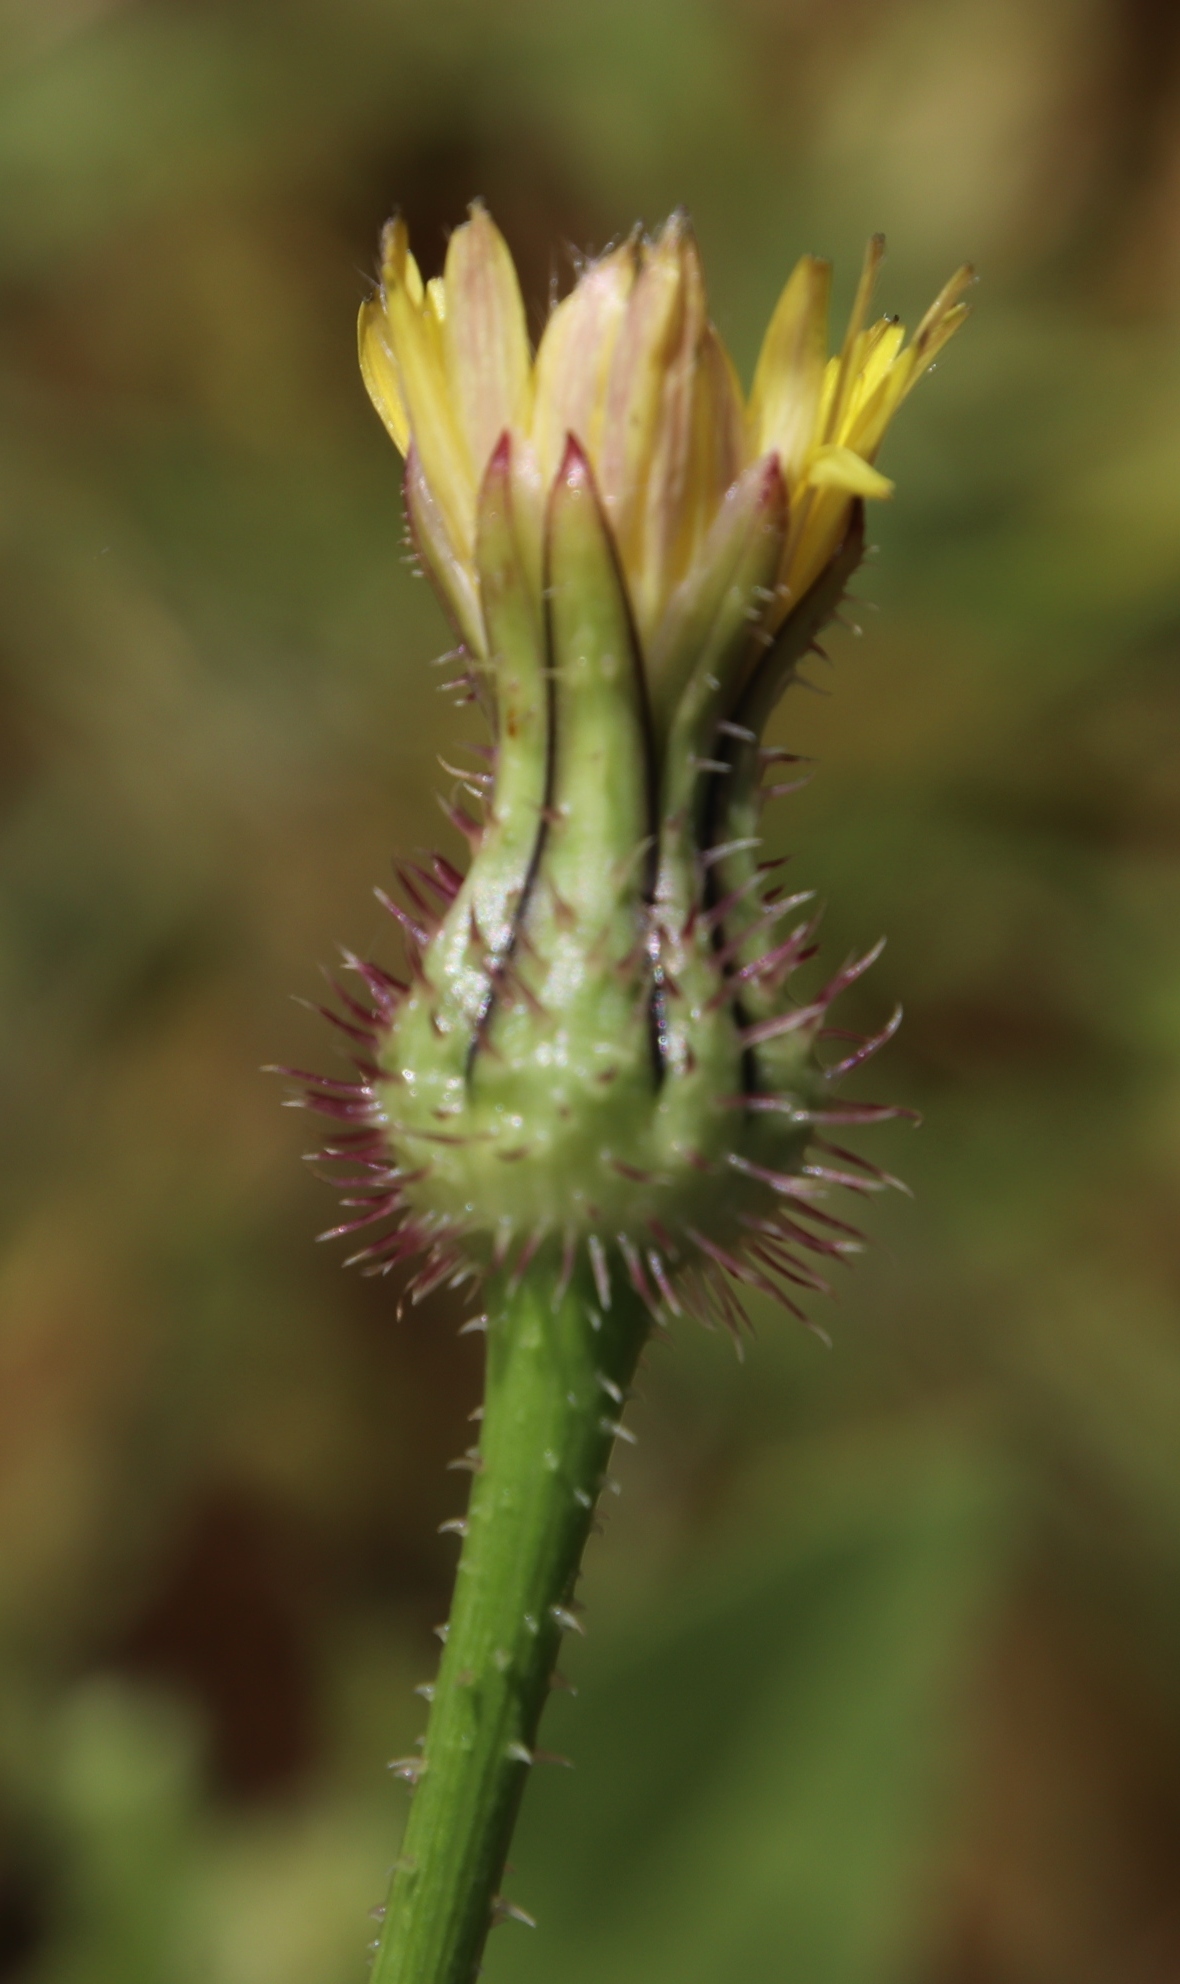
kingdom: Plantae
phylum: Tracheophyta
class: Magnoliopsida
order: Asterales
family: Asteraceae
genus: Urospermum
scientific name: Urospermum picroides
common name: False hawkbit
